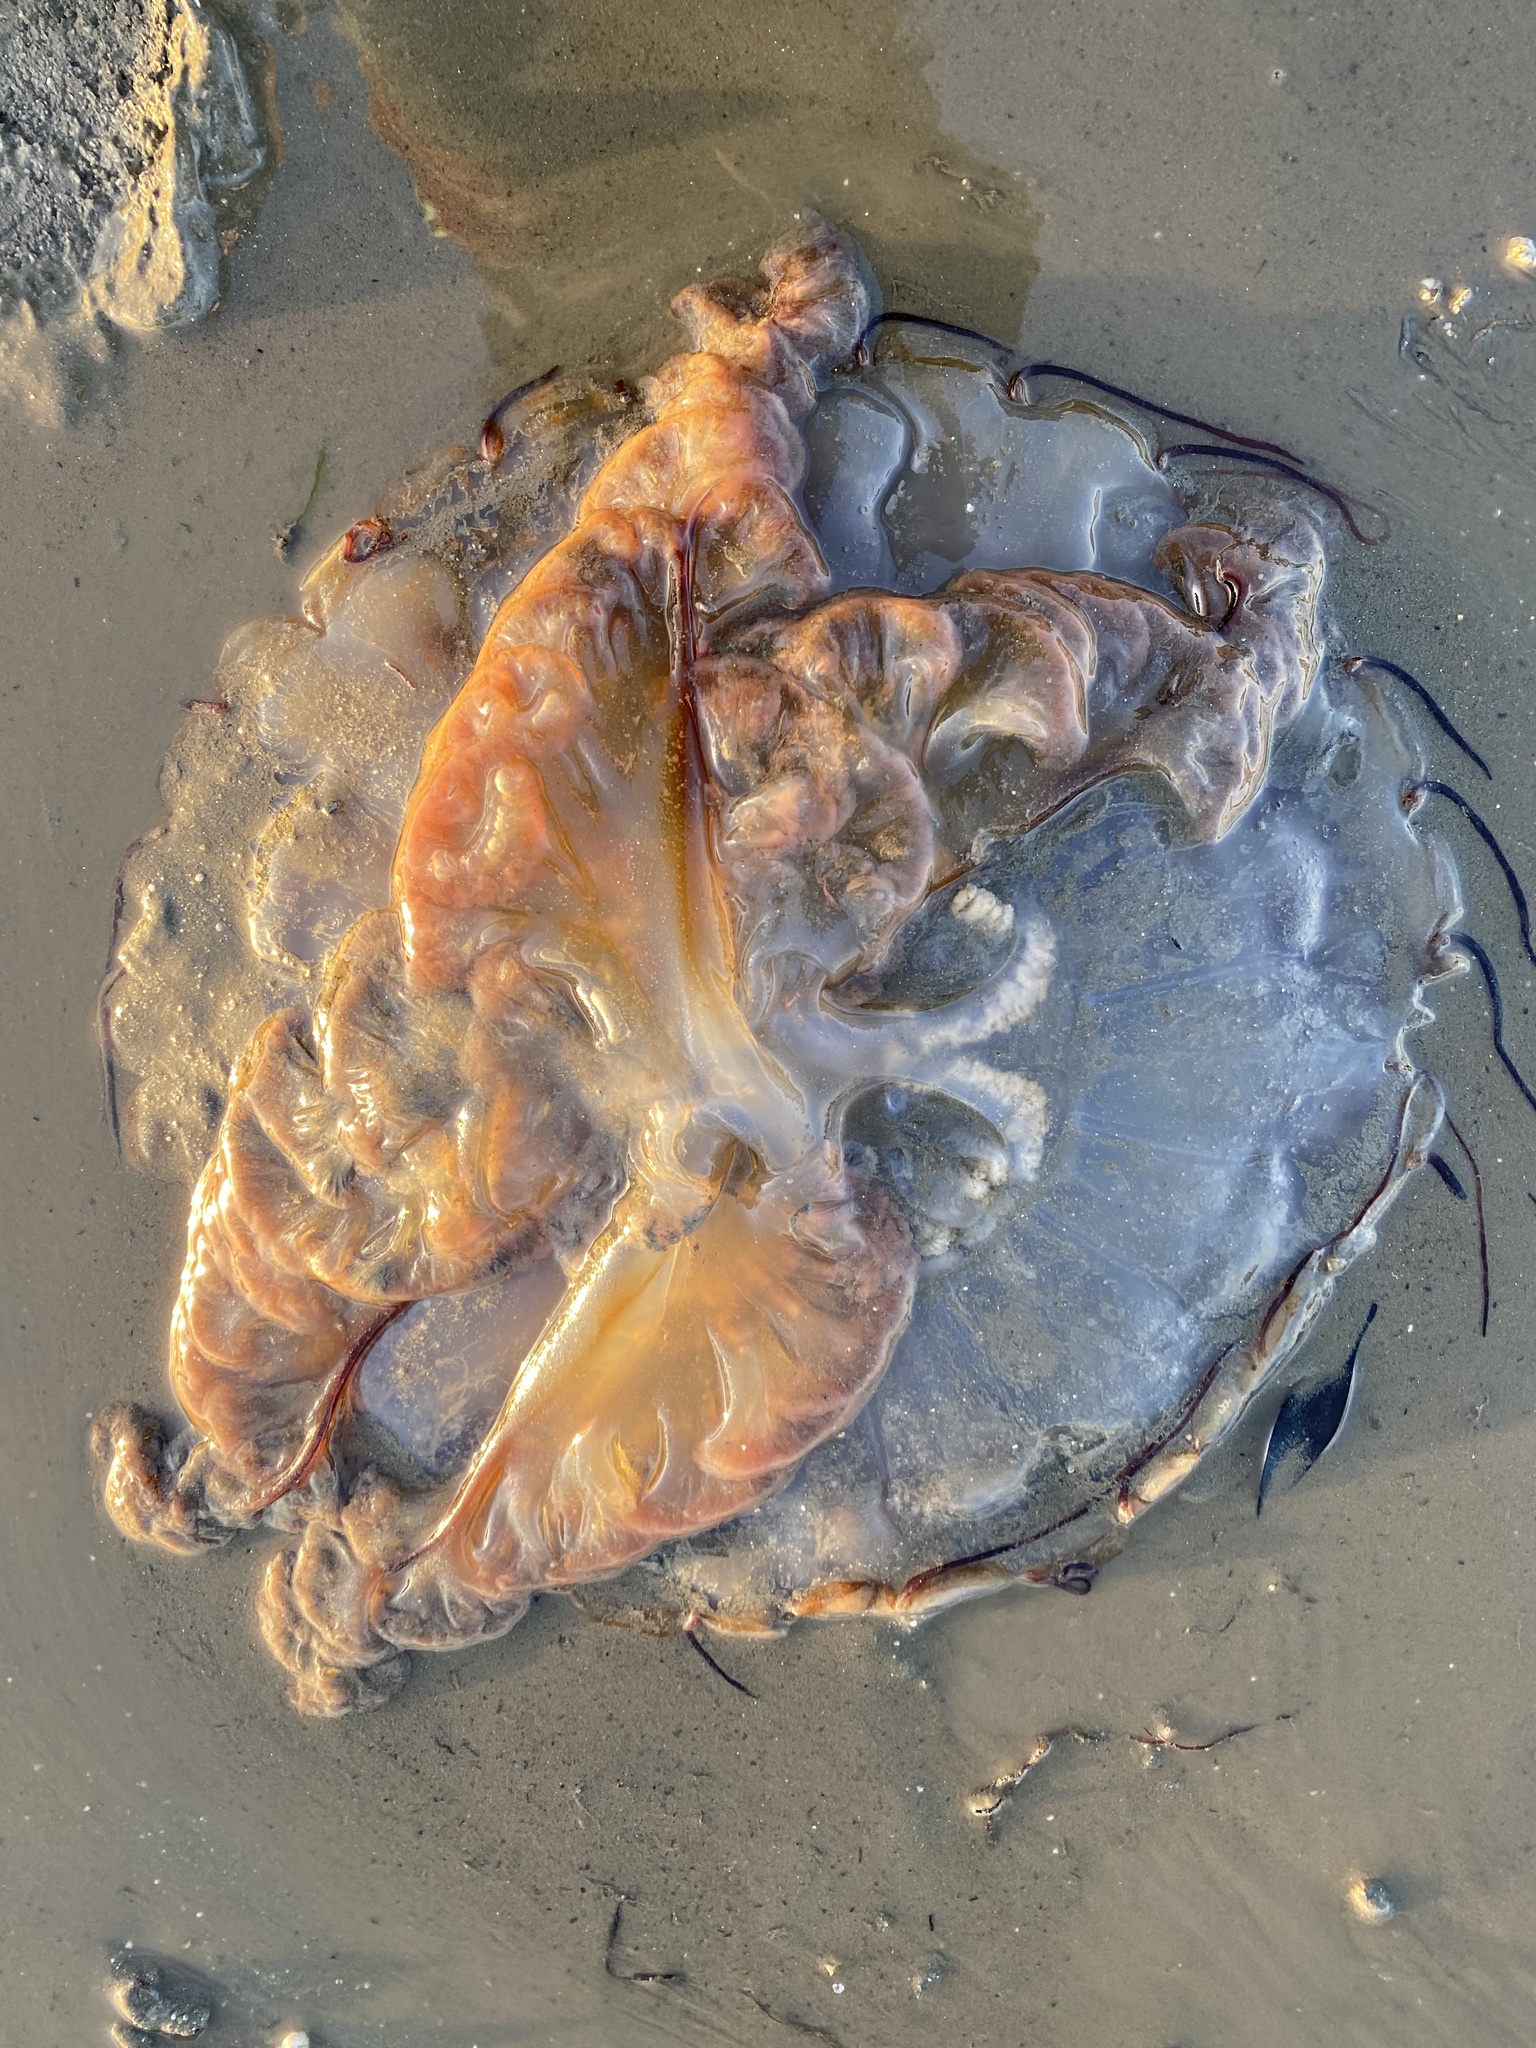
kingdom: Animalia
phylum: Cnidaria
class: Scyphozoa
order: Semaeostomeae
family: Pelagiidae
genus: Chrysaora
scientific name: Chrysaora fuscescens
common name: Sea nettle
